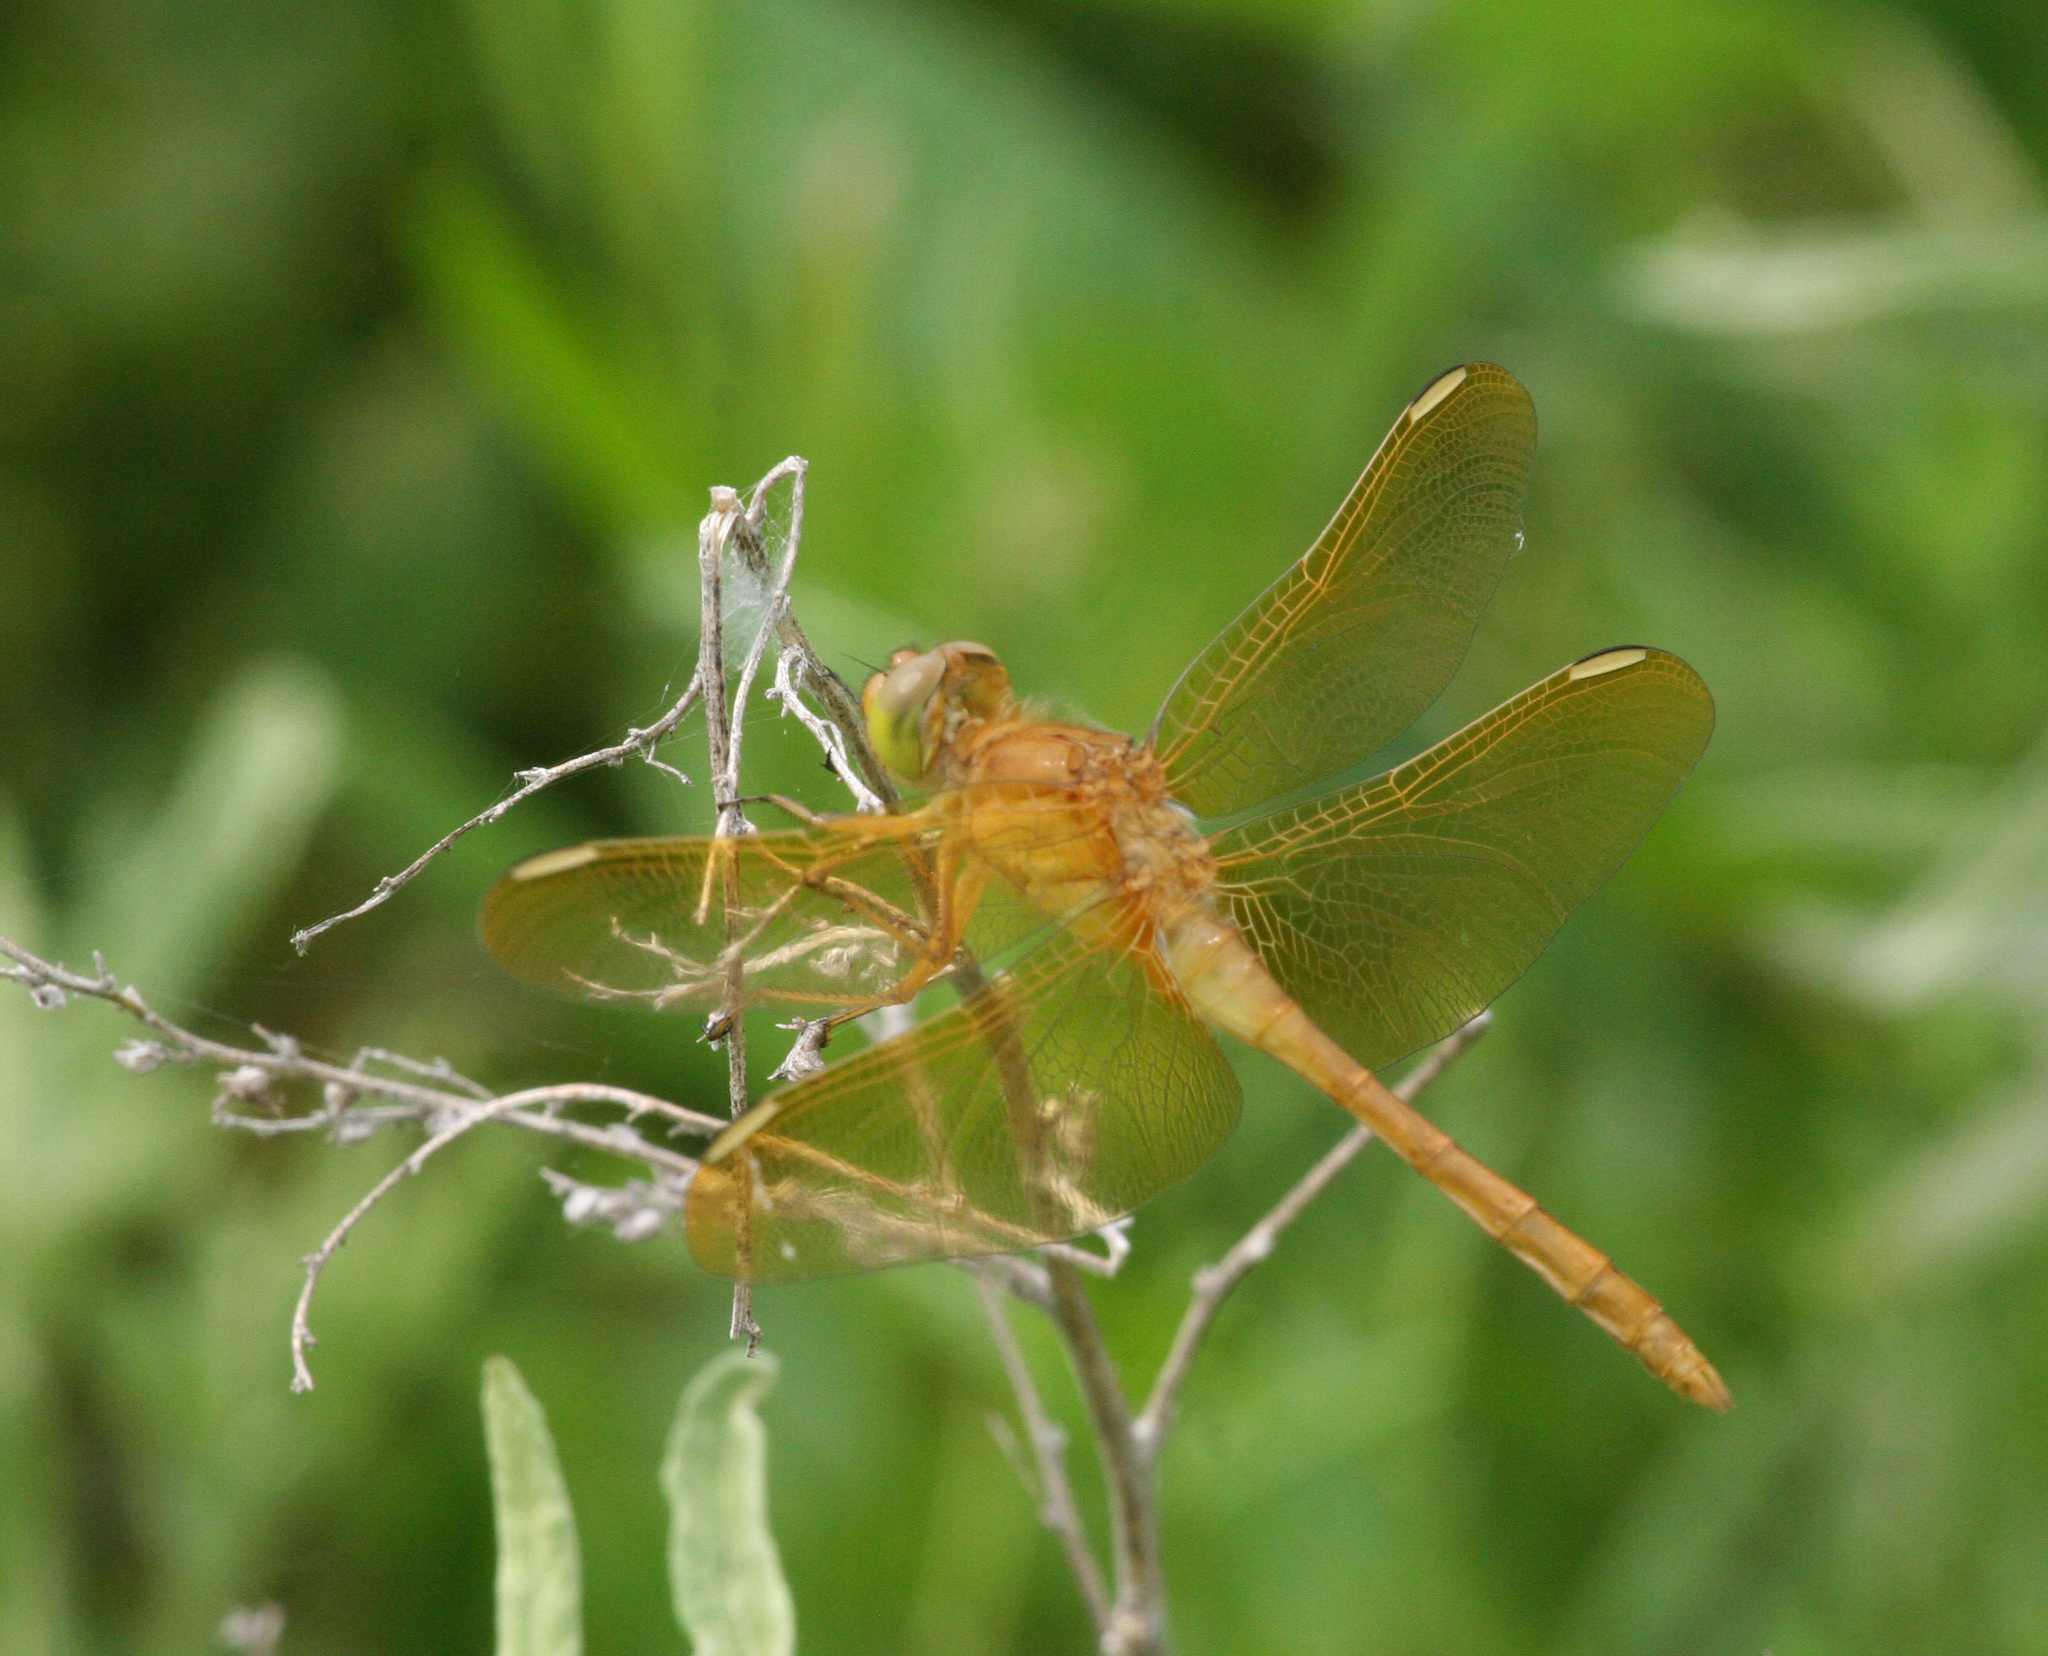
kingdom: Animalia
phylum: Arthropoda
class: Insecta
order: Odonata
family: Libellulidae
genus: Sympetrum
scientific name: Sympetrum uniforme
